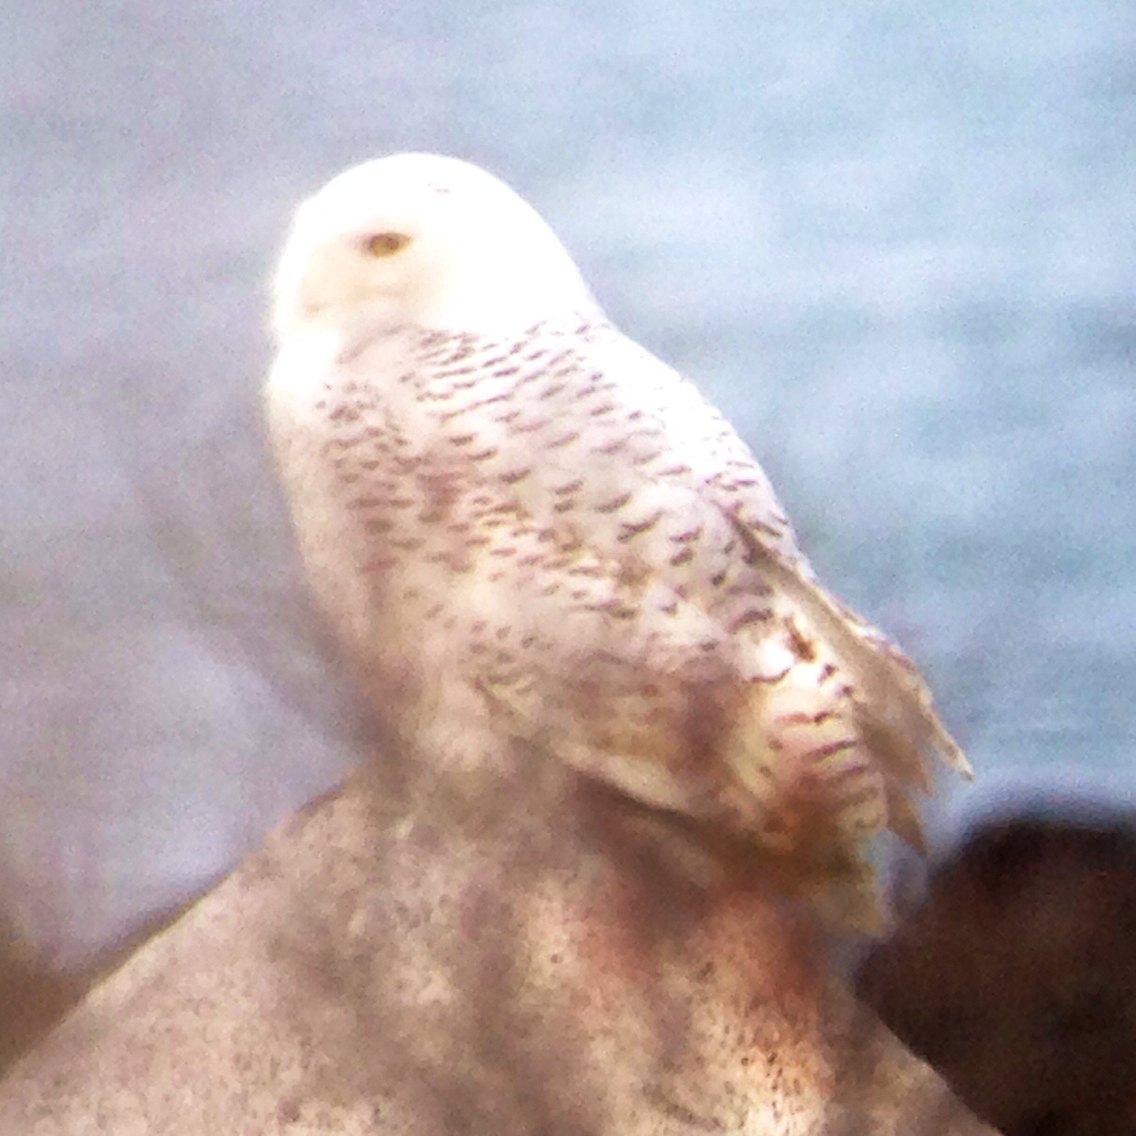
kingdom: Animalia
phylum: Chordata
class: Aves
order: Strigiformes
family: Strigidae
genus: Bubo
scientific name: Bubo scandiacus
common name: Snowy owl
